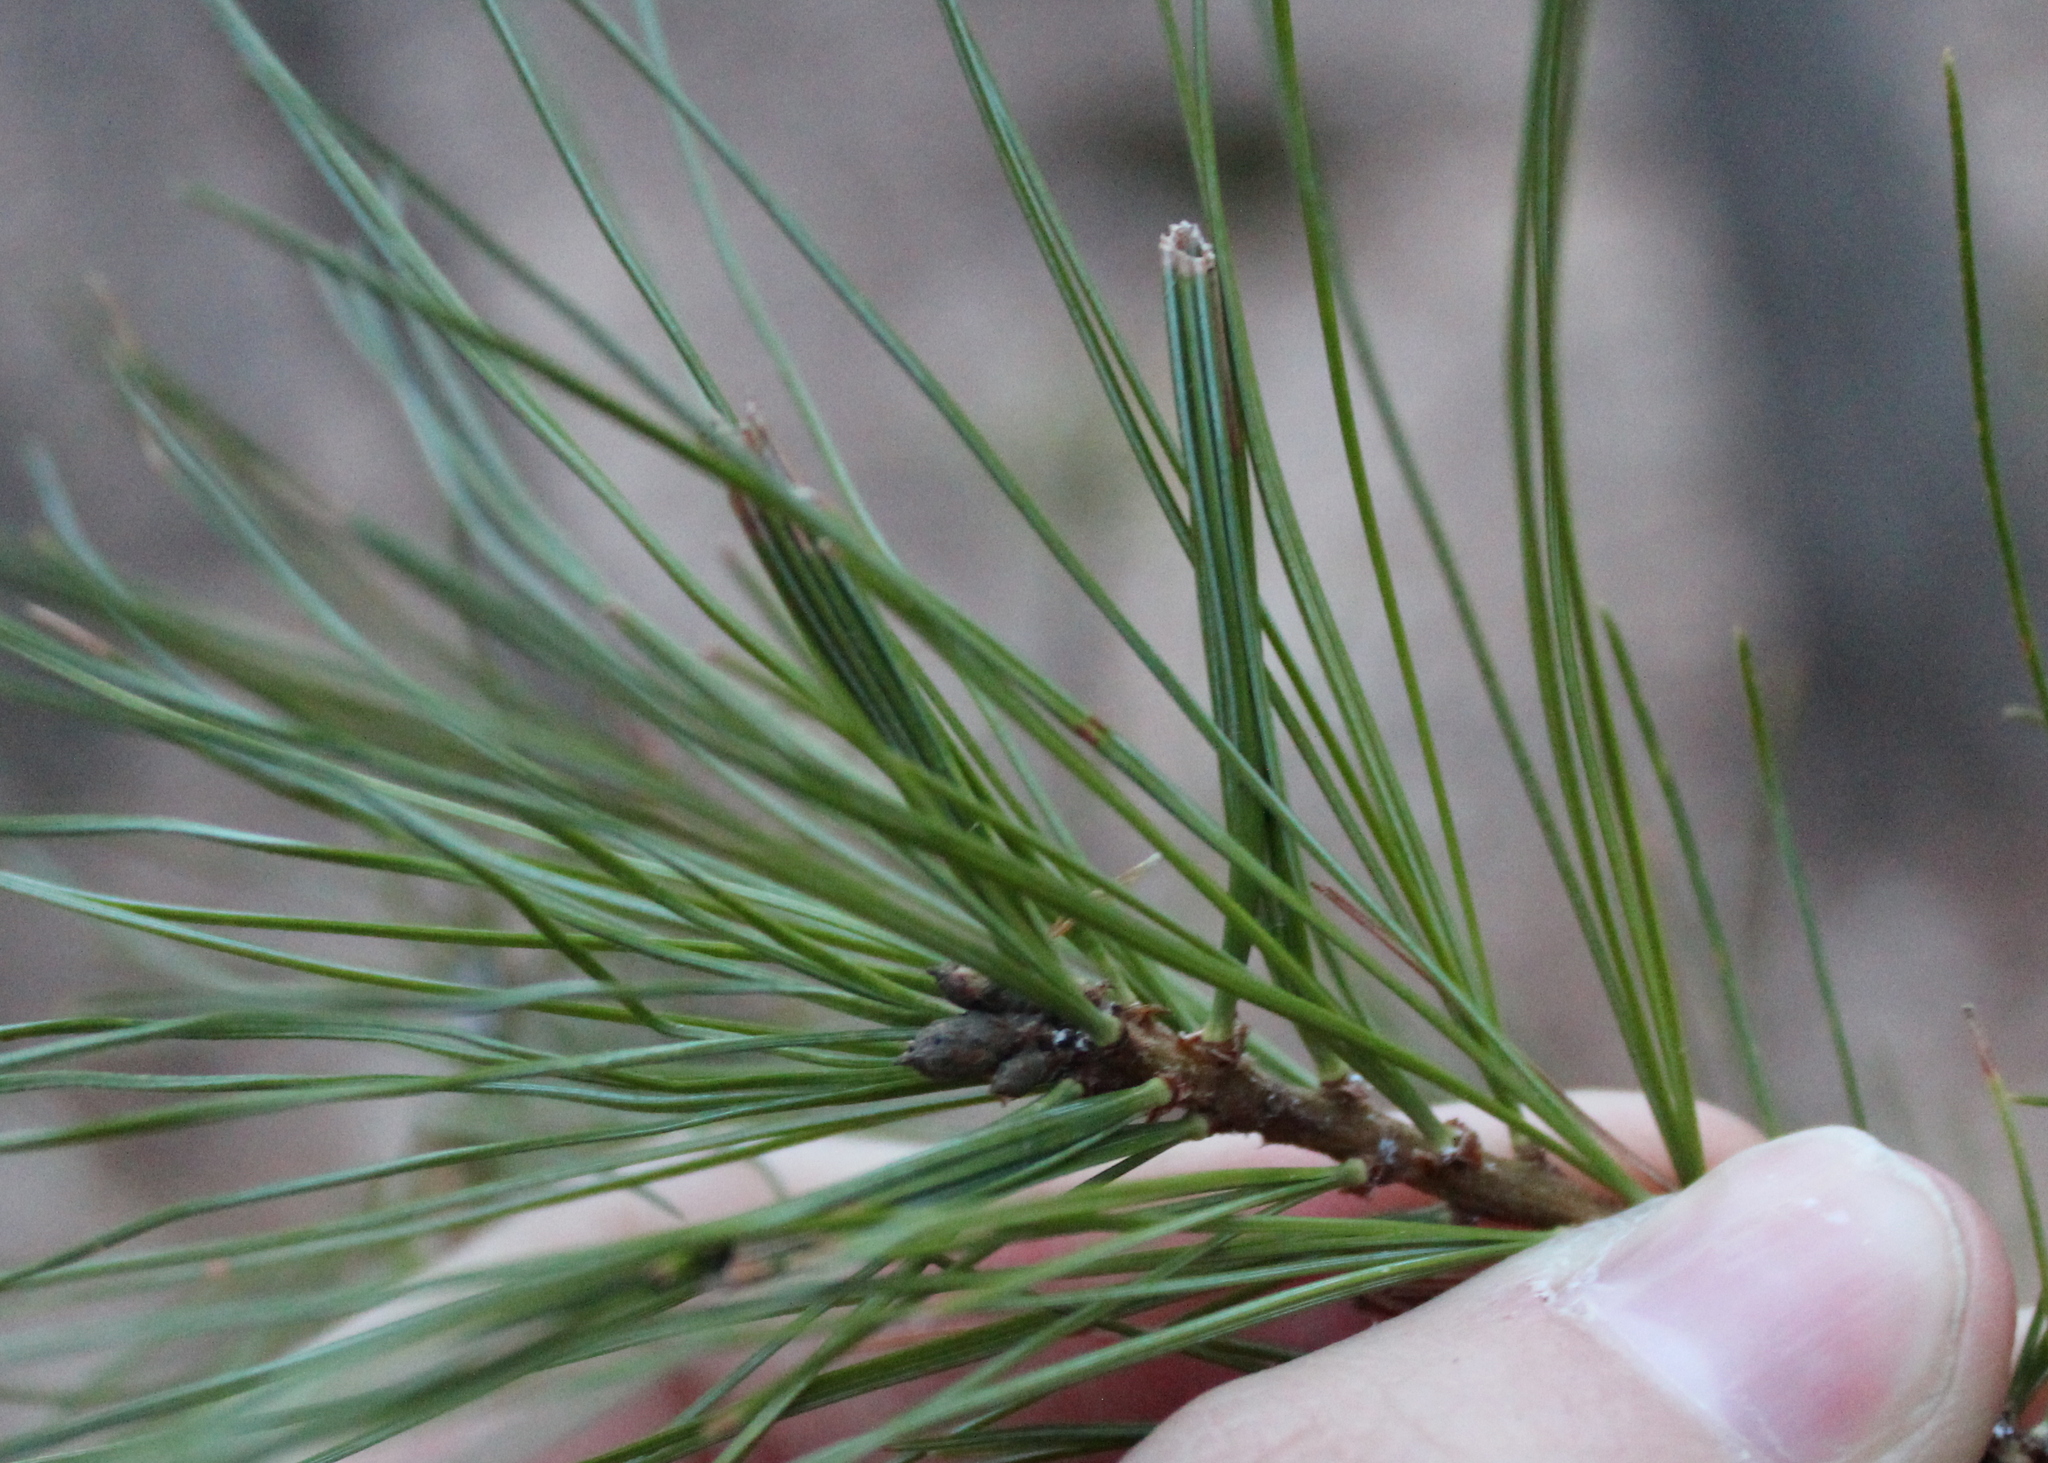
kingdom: Animalia
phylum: Arthropoda
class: Insecta
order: Lepidoptera
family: Tortricidae
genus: Argyrotaenia
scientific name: Argyrotaenia pinatubana
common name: Pine tube moth
